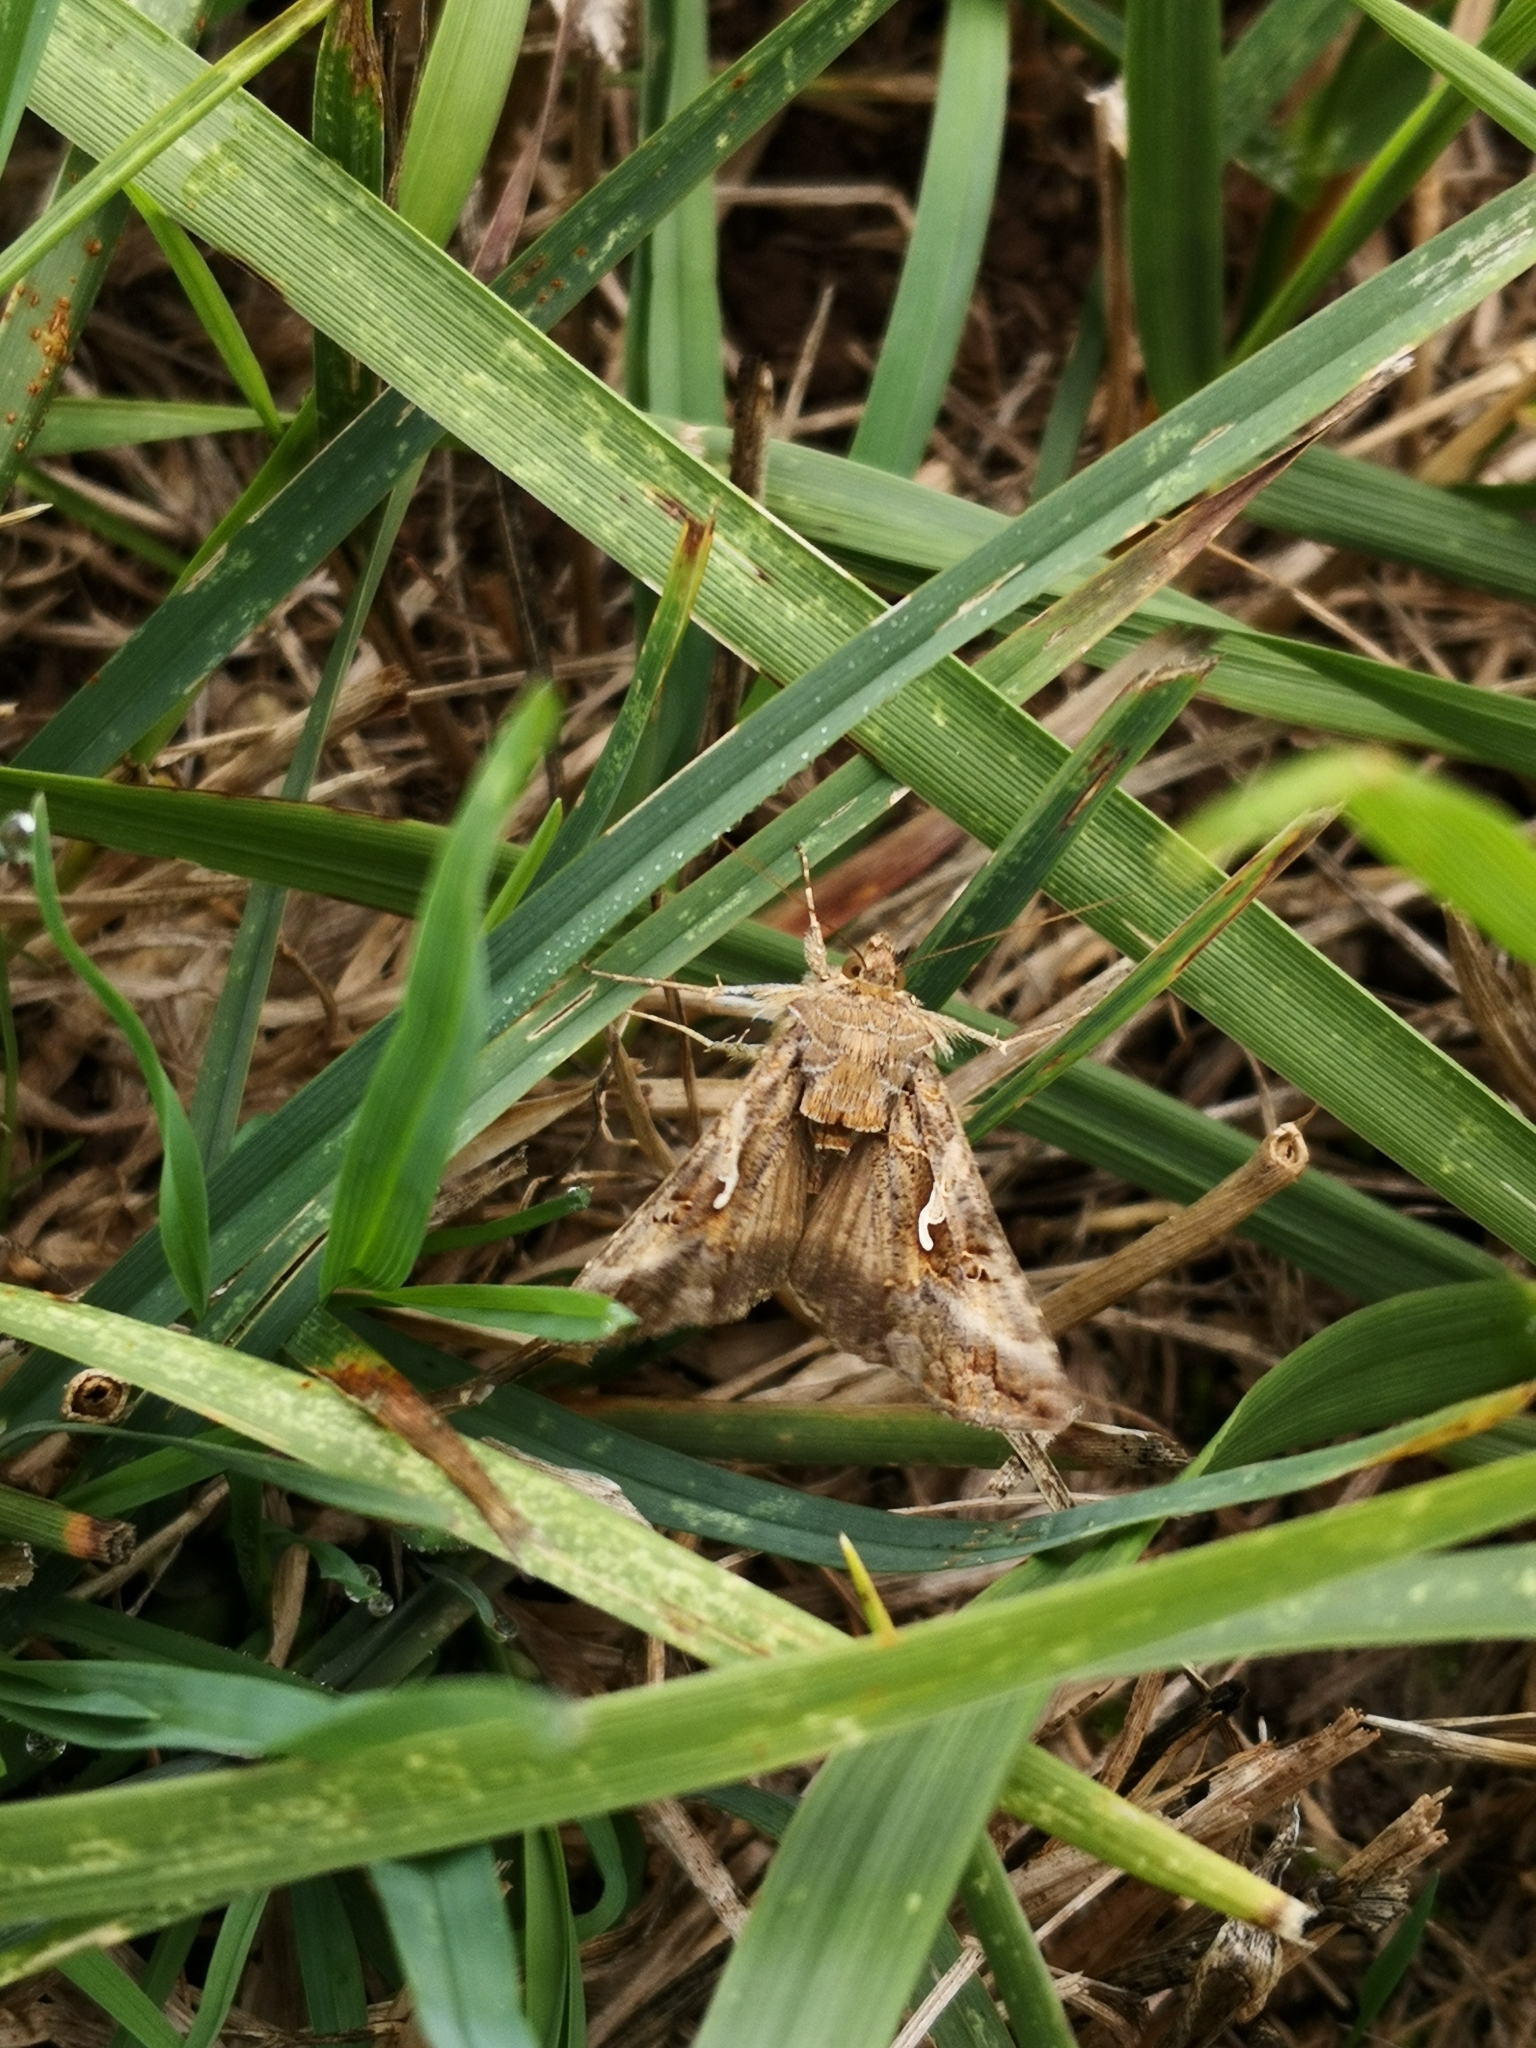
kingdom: Animalia
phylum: Arthropoda
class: Insecta
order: Lepidoptera
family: Noctuidae
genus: Autographa
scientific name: Autographa gamma
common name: Silver y
